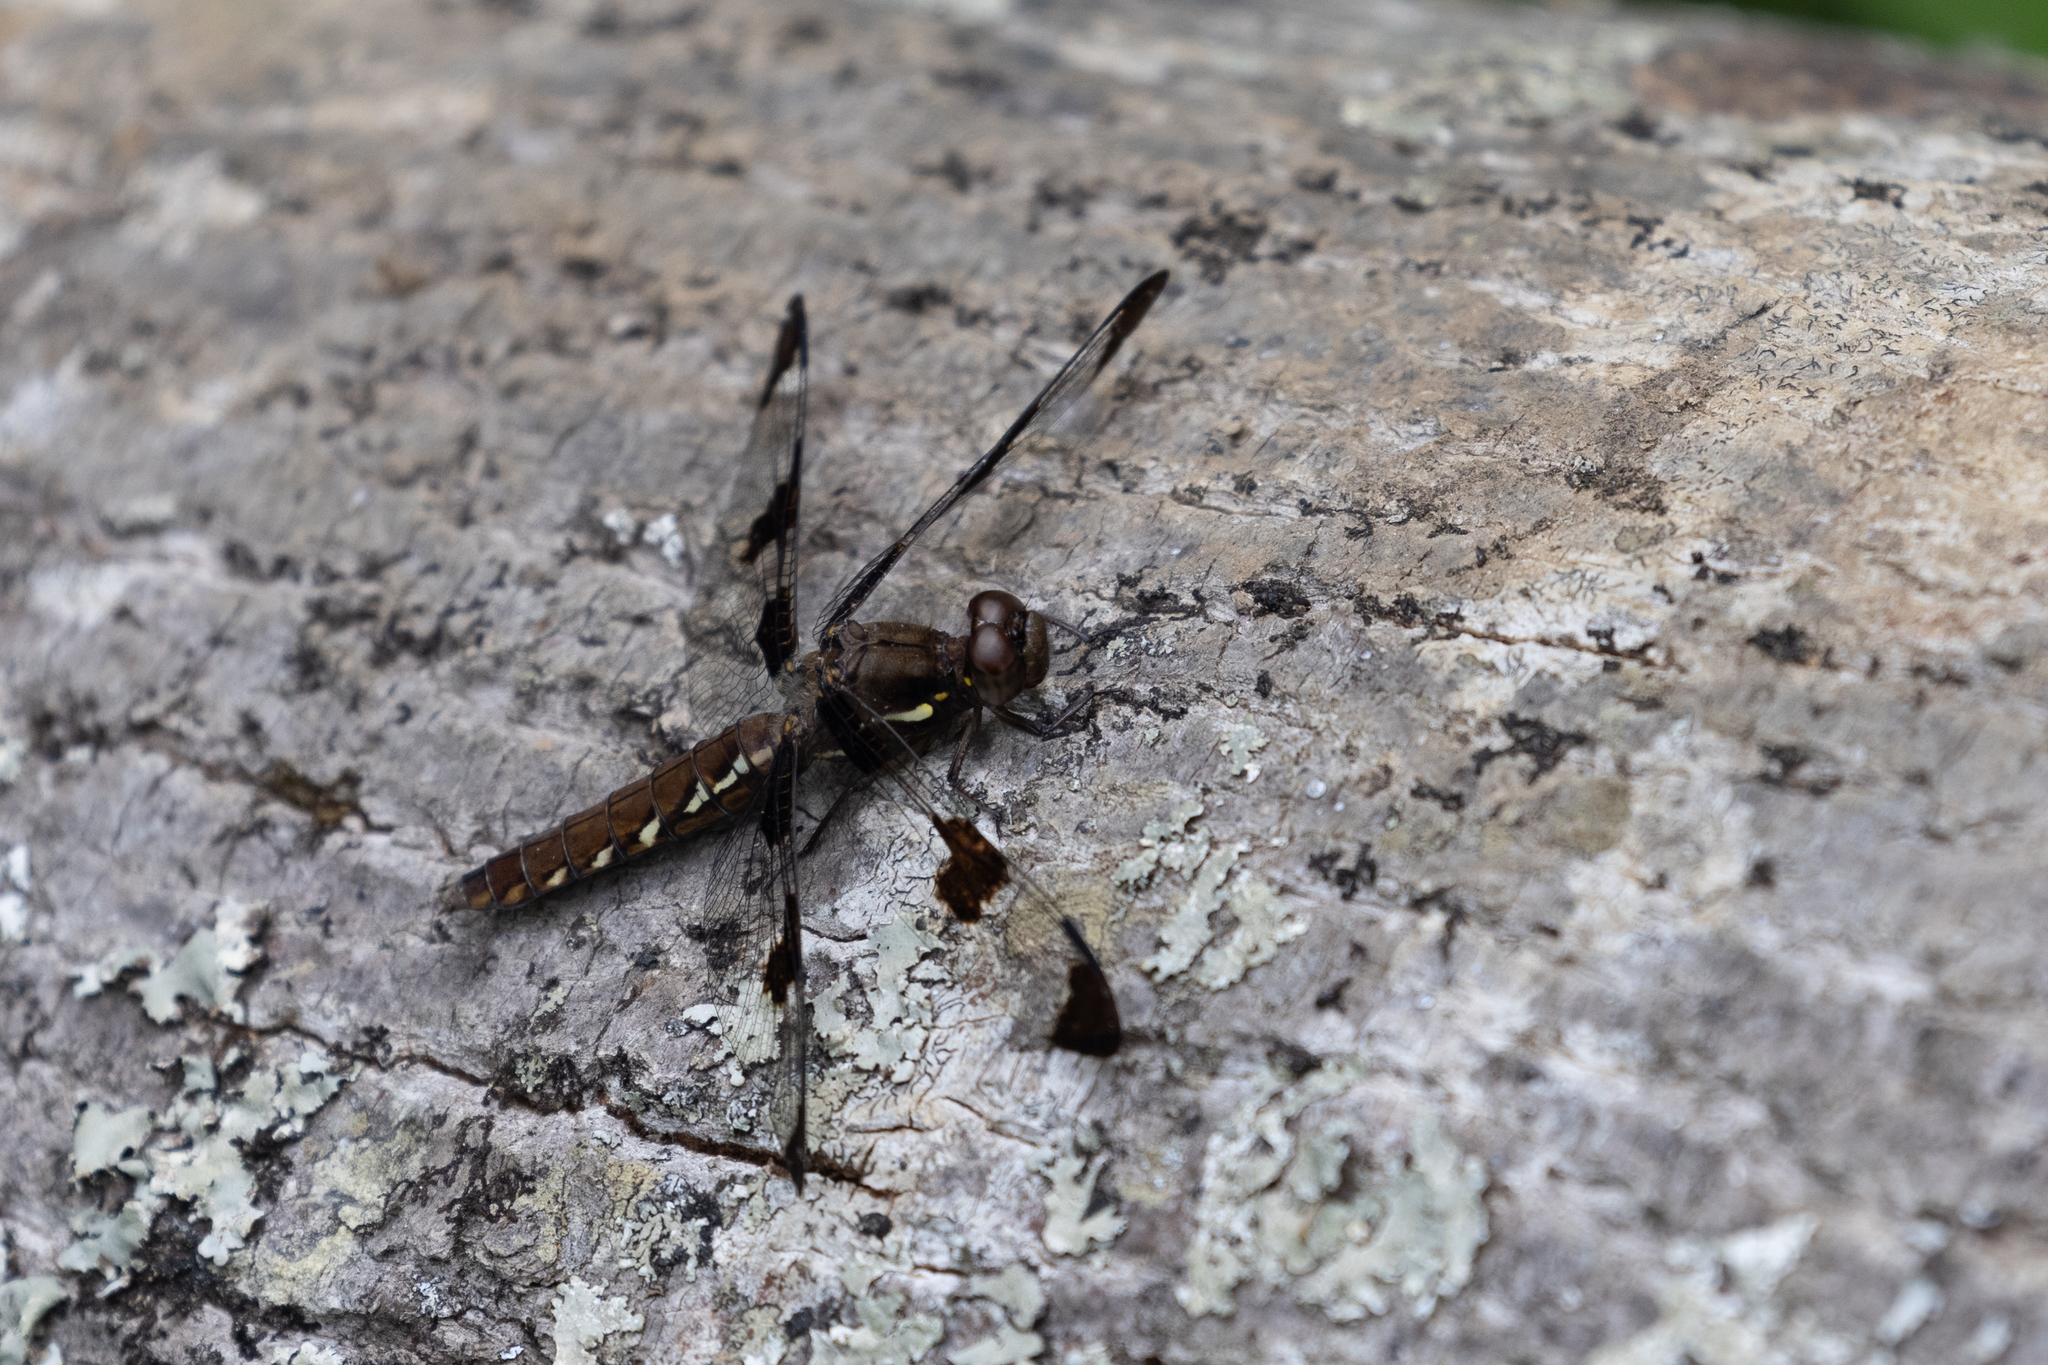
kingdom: Animalia
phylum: Arthropoda
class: Insecta
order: Odonata
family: Libellulidae
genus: Plathemis
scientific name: Plathemis lydia
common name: Common whitetail
